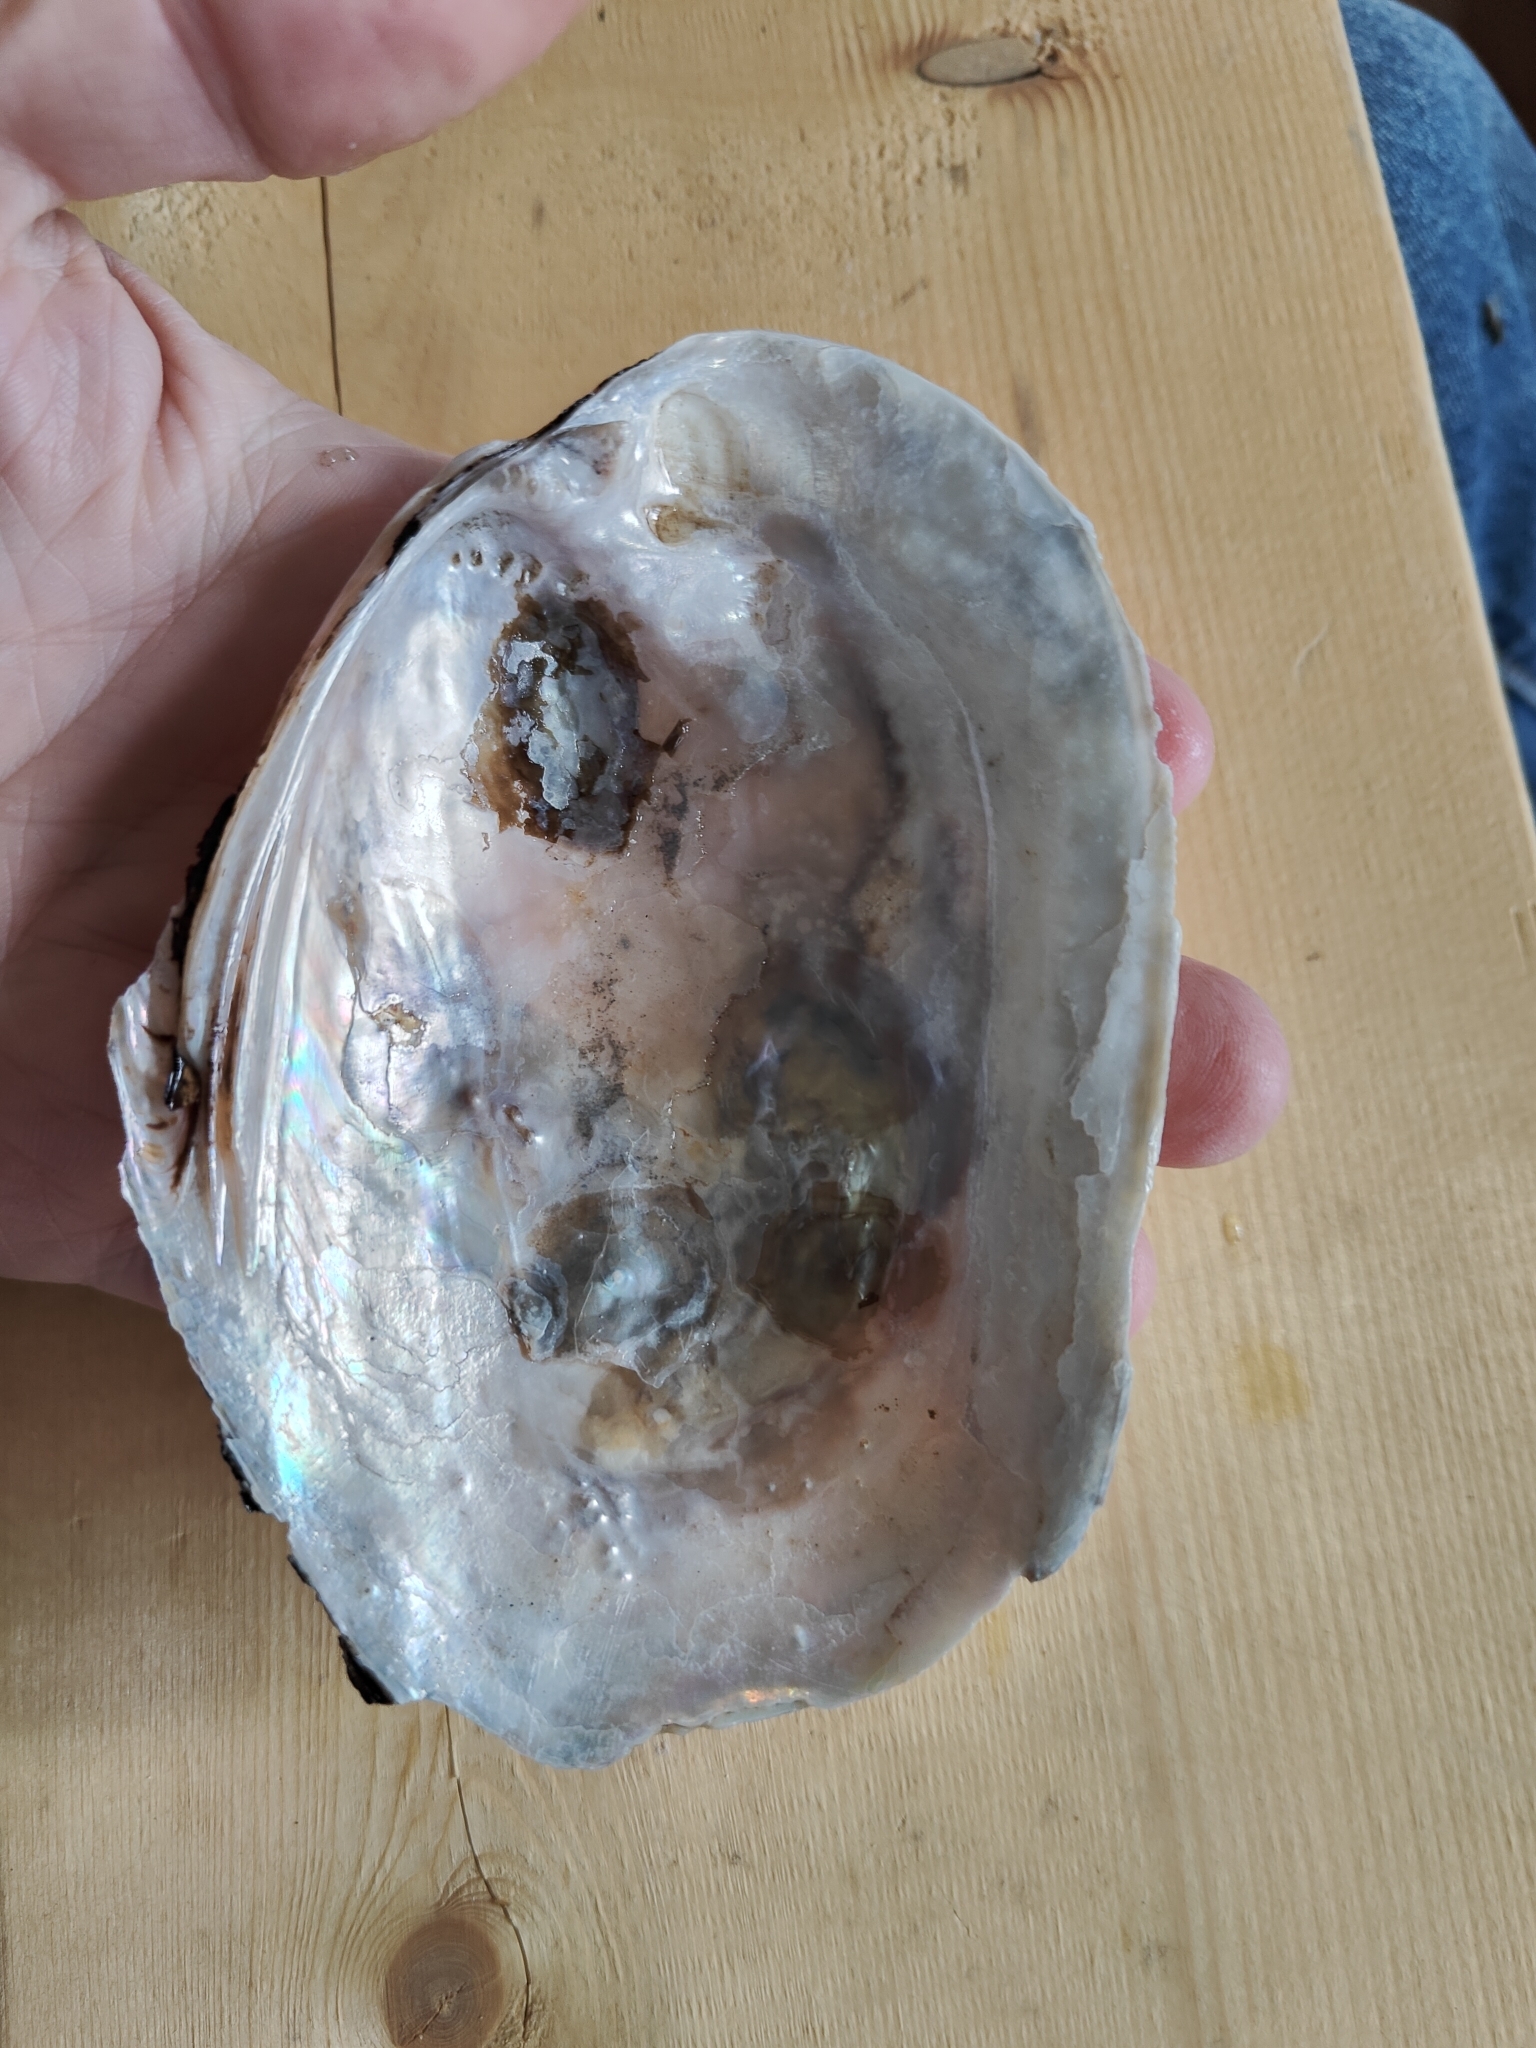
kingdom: Animalia
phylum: Mollusca
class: Bivalvia
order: Unionida
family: Unionidae
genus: Potamilus
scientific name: Potamilus alatus
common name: Pink heelsplitter
